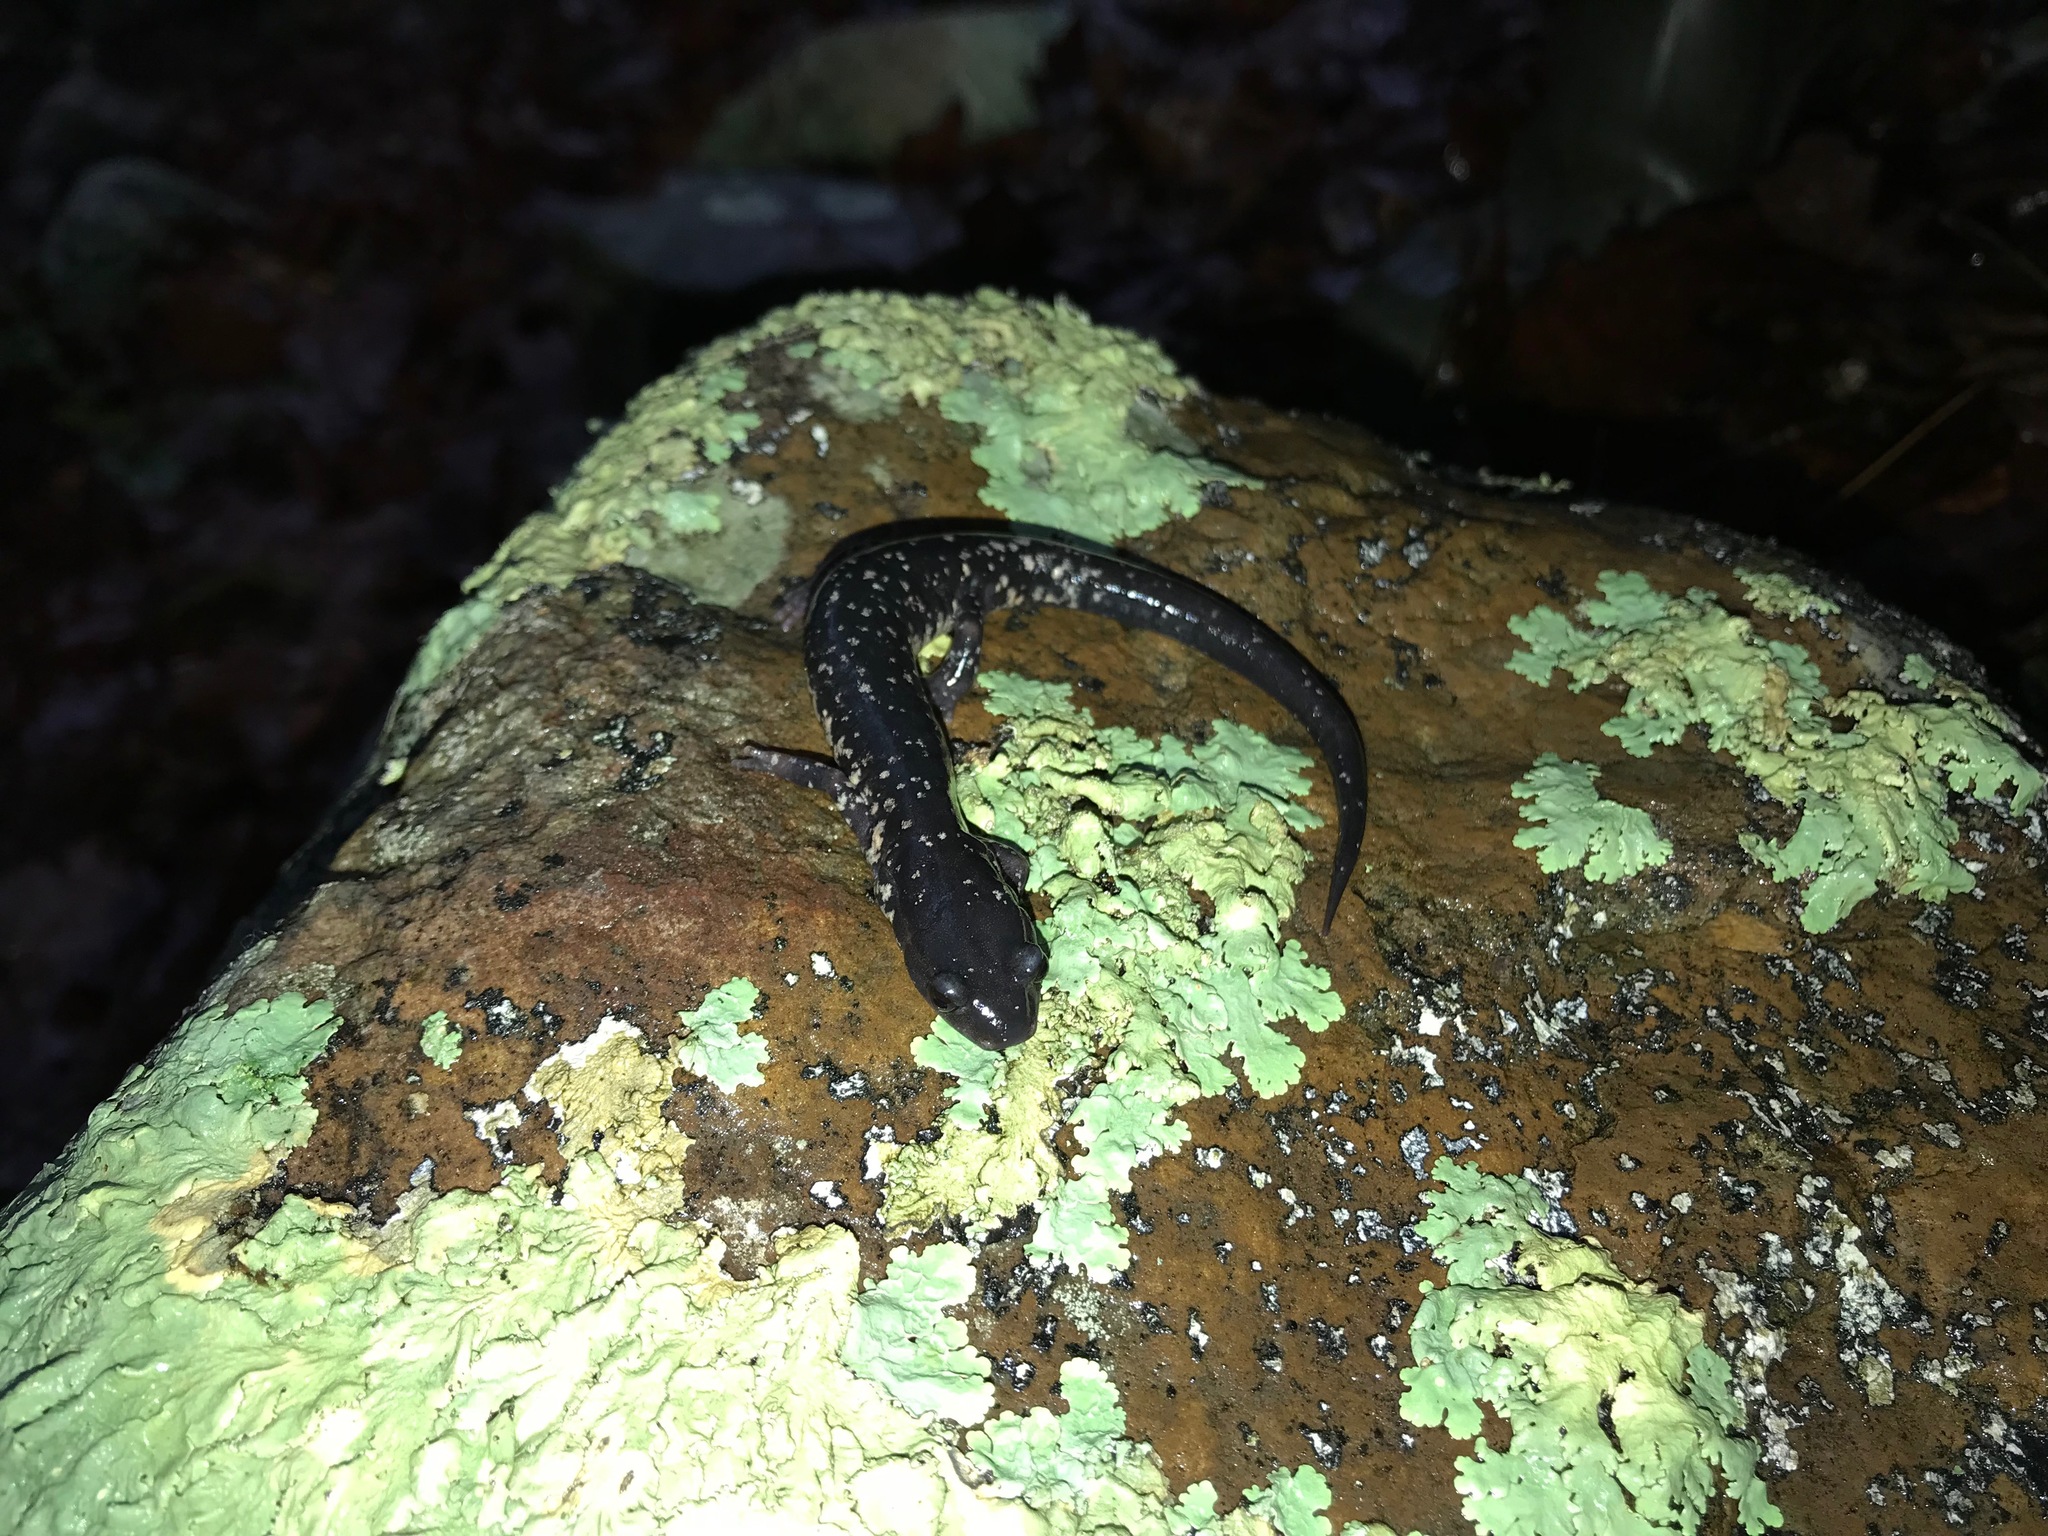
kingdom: Animalia
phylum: Chordata
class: Amphibia
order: Caudata
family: Plethodontidae
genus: Plethodon
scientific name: Plethodon albagula
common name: Western slimy salamander
